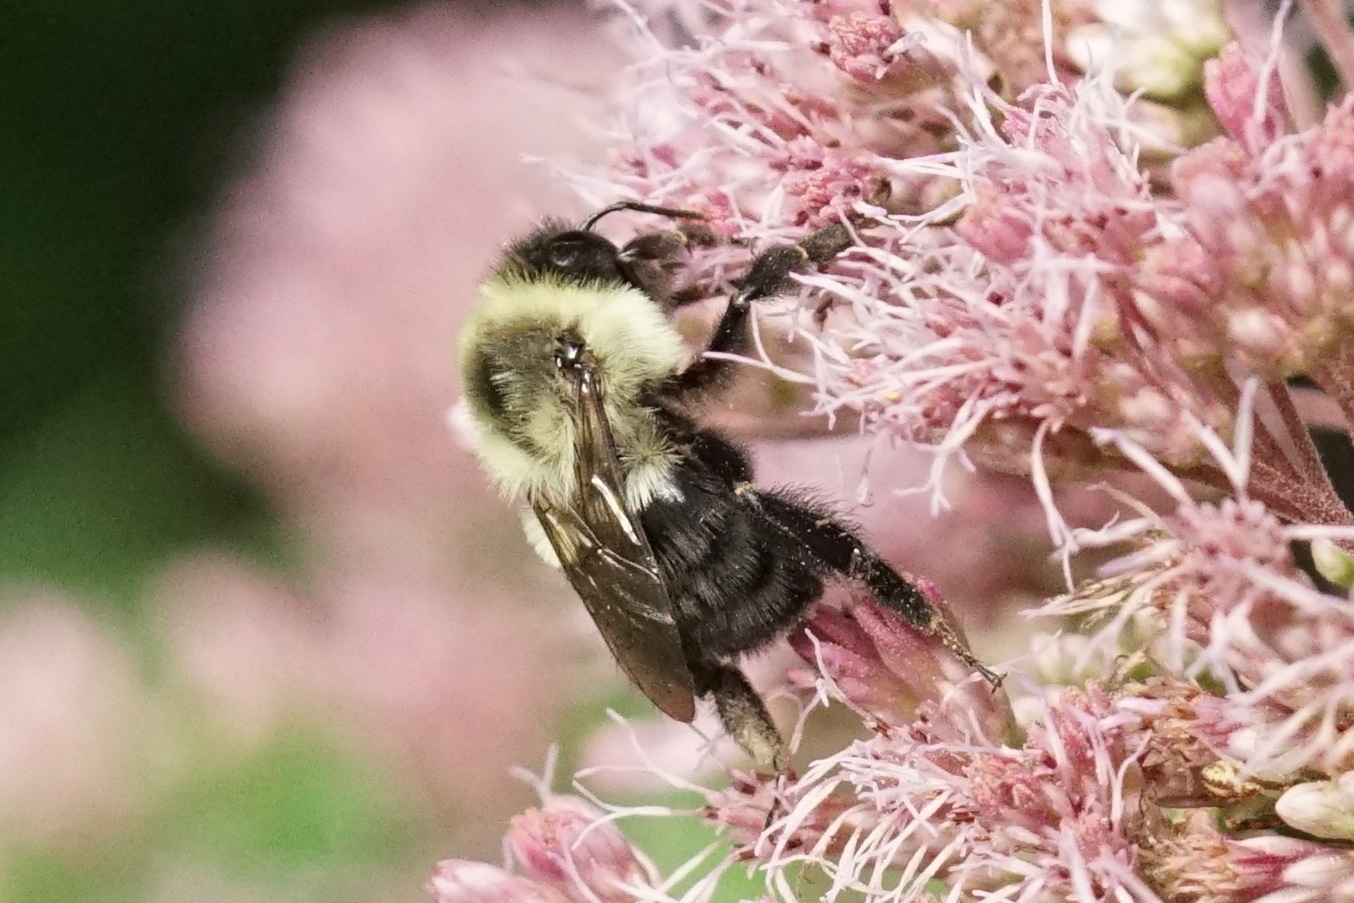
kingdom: Animalia
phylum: Arthropoda
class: Insecta
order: Hymenoptera
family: Apidae
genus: Bombus
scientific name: Bombus impatiens
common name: Common eastern bumble bee
